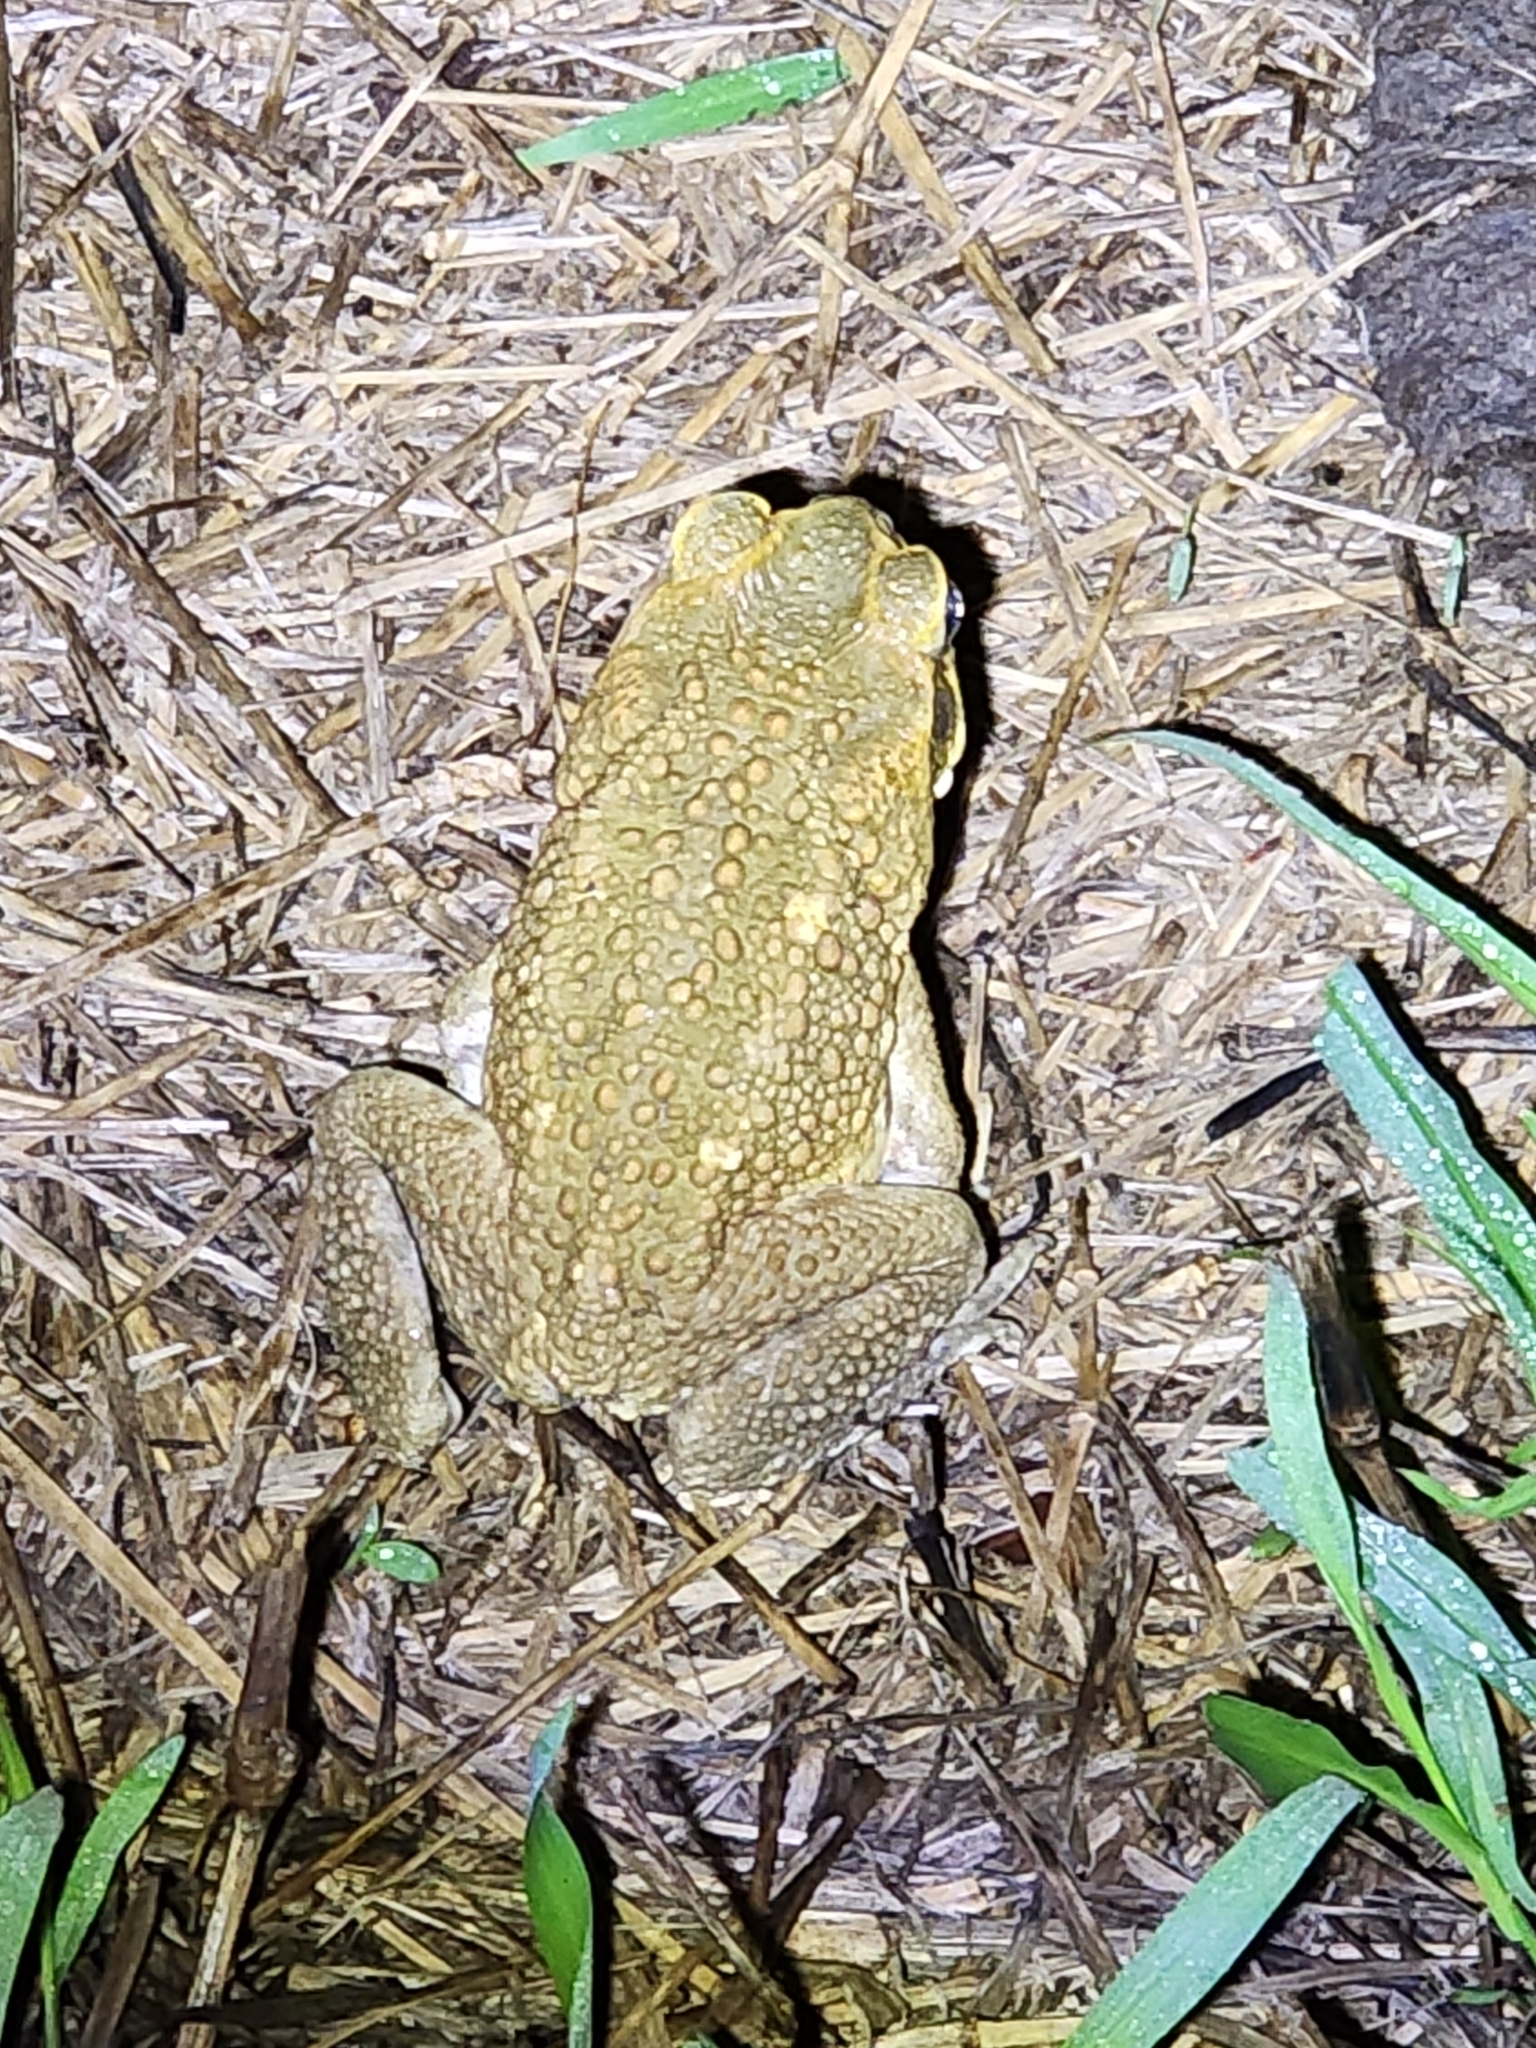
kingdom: Animalia
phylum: Chordata
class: Amphibia
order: Anura
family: Bufonidae
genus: Rhinella
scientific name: Rhinella marina
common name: Cane toad
